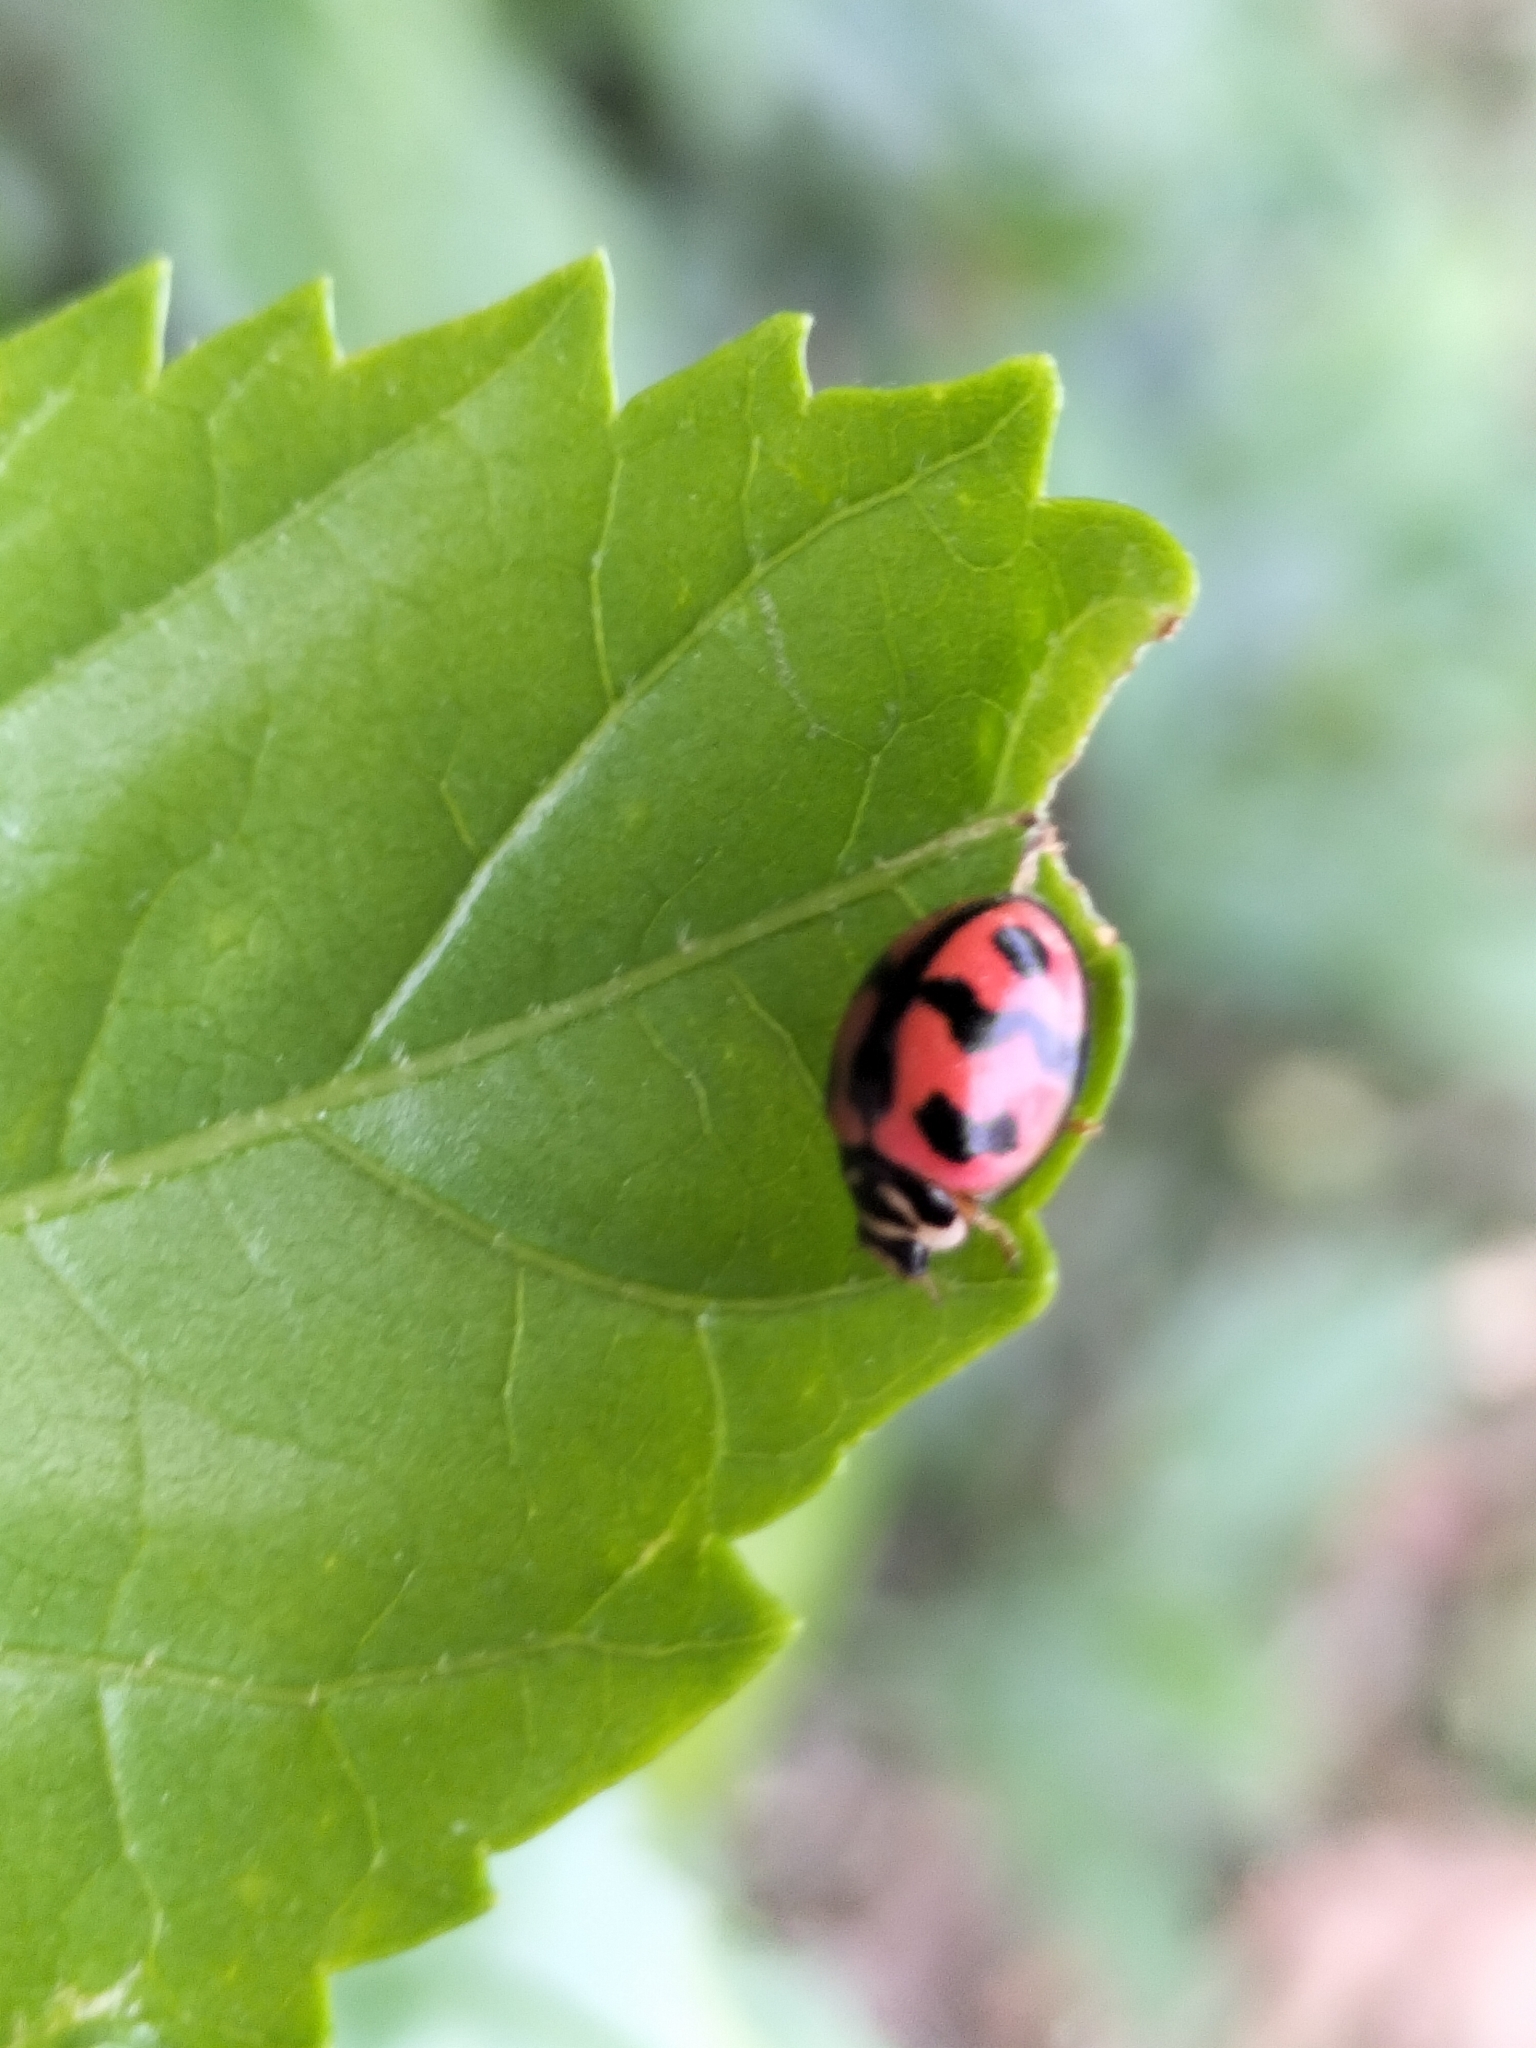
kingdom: Animalia
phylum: Arthropoda
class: Insecta
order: Coleoptera
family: Coccinellidae
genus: Cheilomenes
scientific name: Cheilomenes sexmaculata
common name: Ladybird beetle
